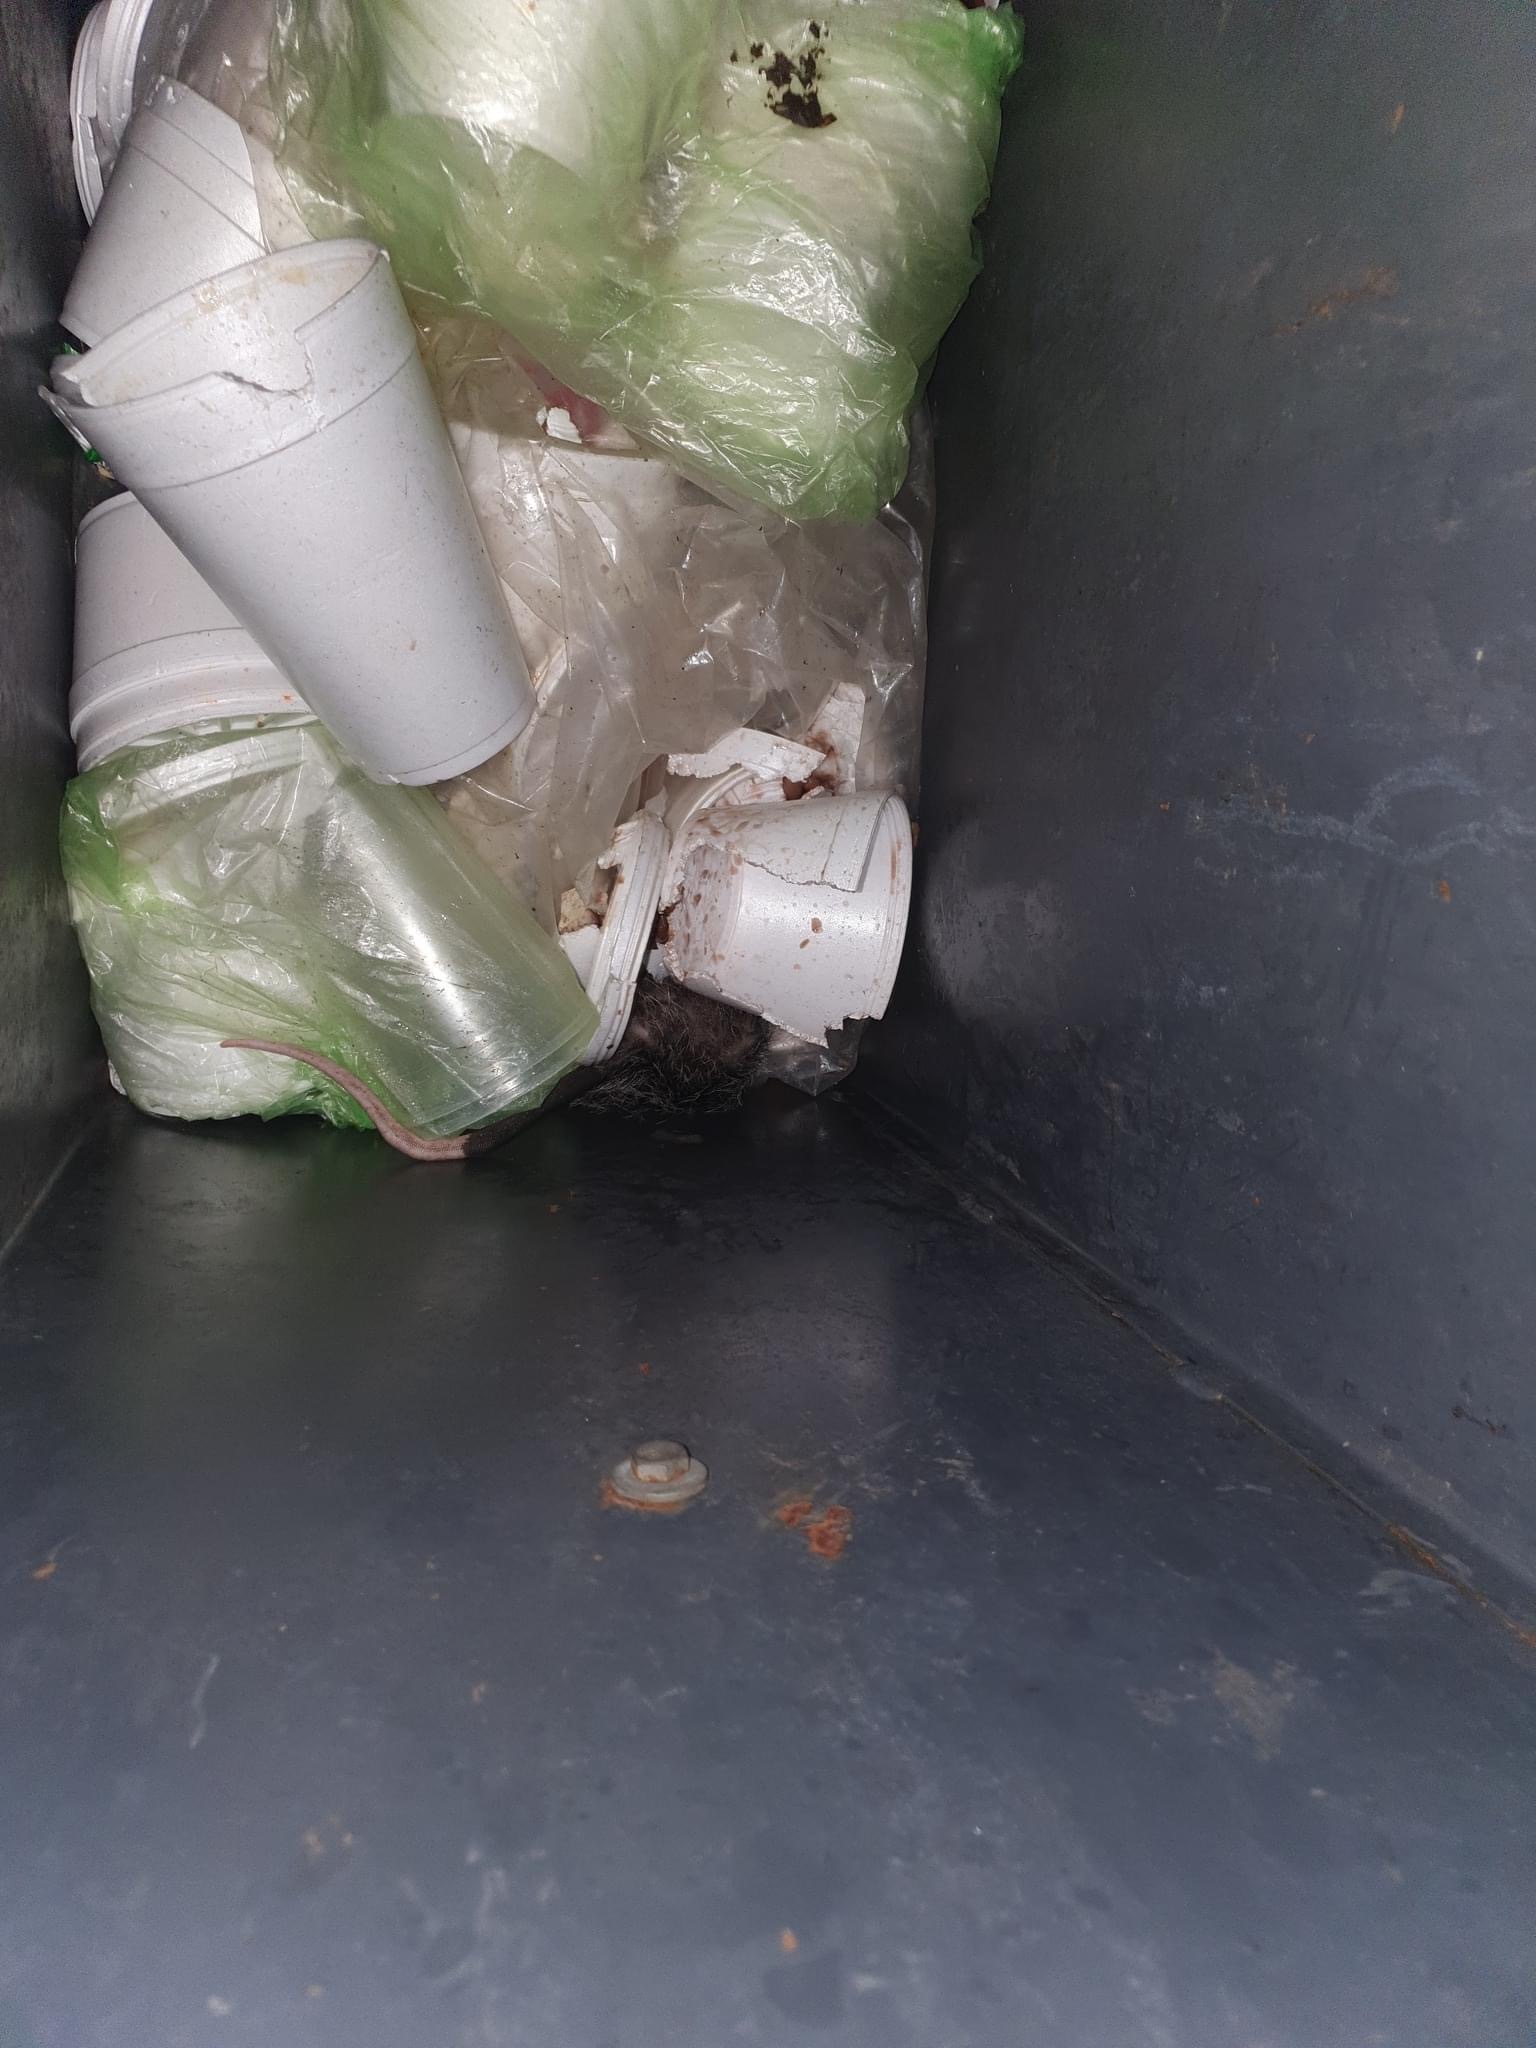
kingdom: Animalia
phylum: Chordata
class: Mammalia
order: Didelphimorphia
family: Didelphidae
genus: Didelphis
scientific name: Didelphis virginiana
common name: Virginia opossum
